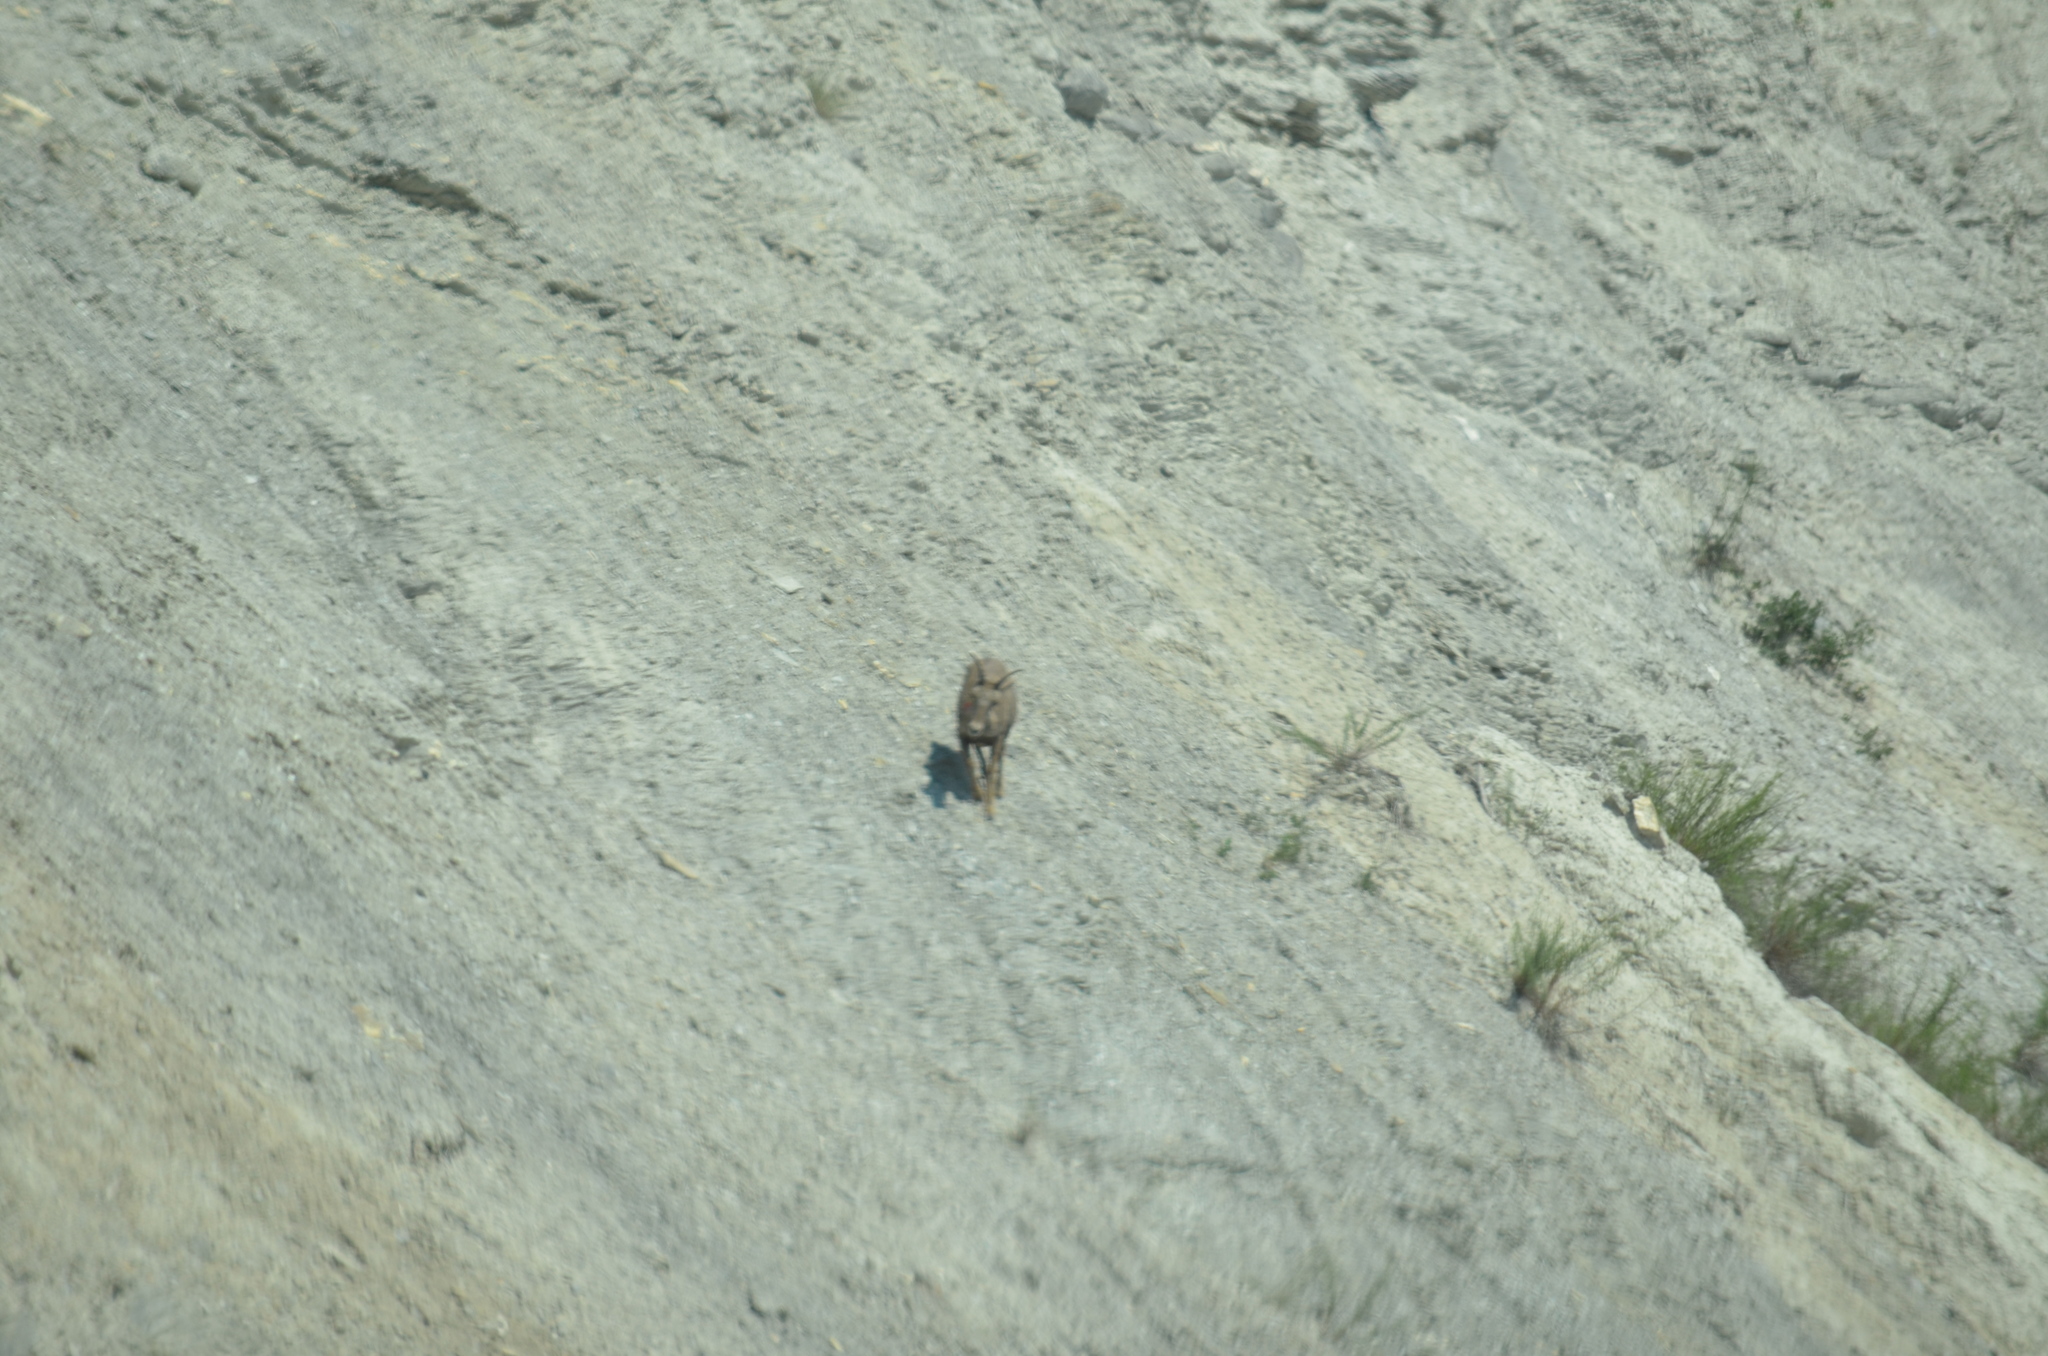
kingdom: Animalia
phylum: Chordata
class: Mammalia
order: Artiodactyla
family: Bovidae
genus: Ovis
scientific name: Ovis canadensis
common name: Bighorn sheep
